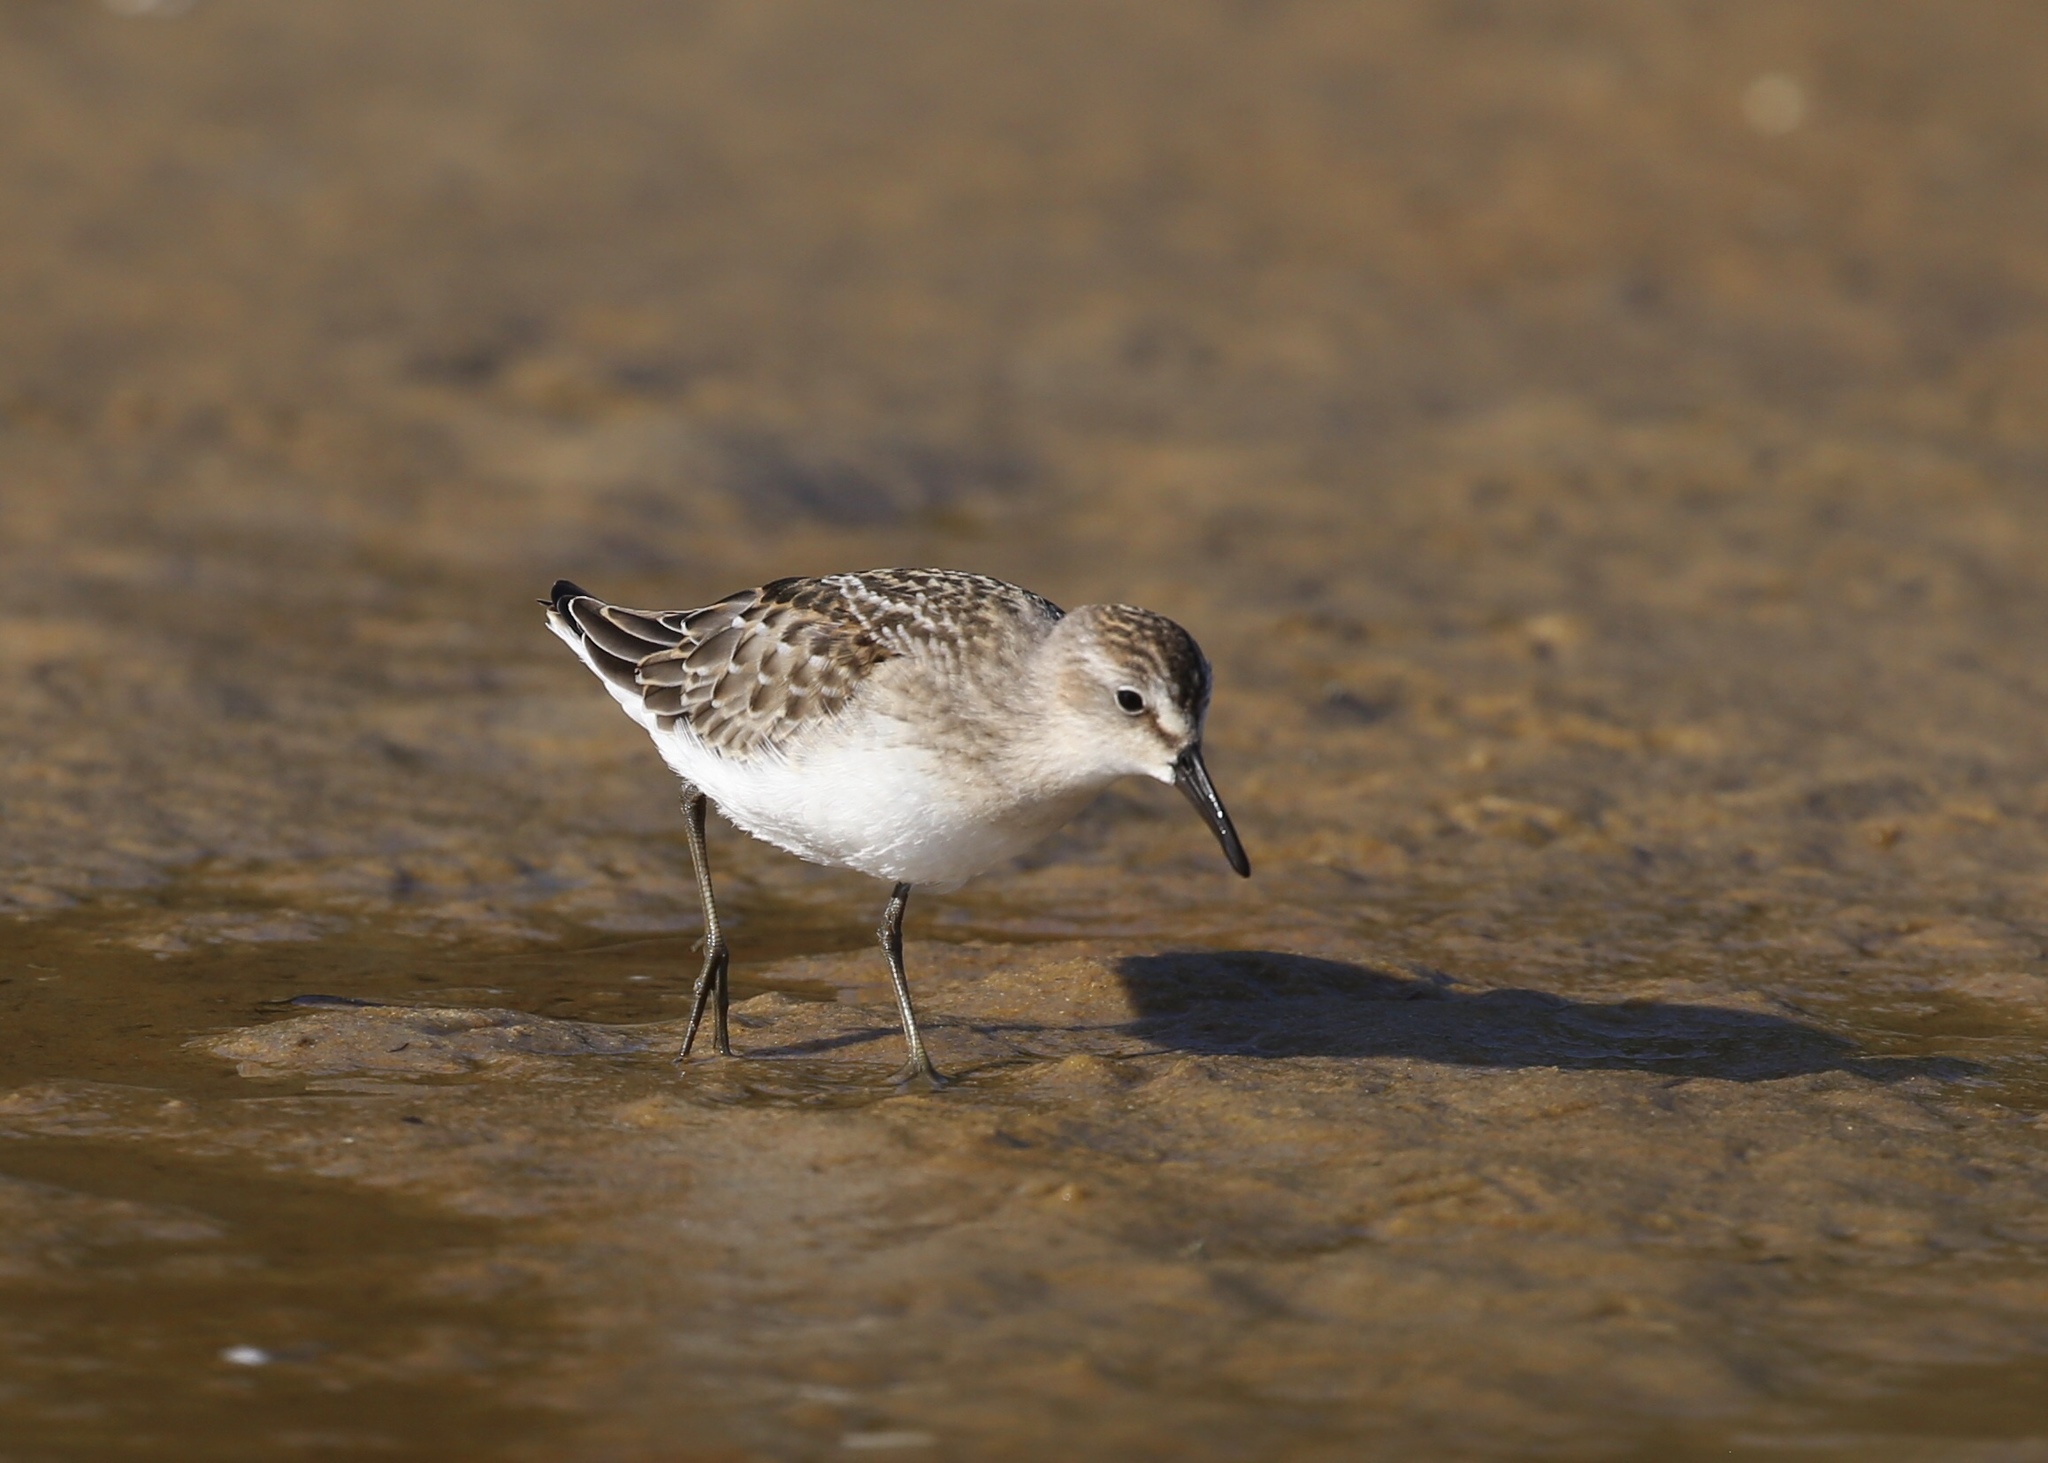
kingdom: Animalia
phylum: Chordata
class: Aves
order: Charadriiformes
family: Scolopacidae
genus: Calidris
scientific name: Calidris pusilla
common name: Semipalmated sandpiper
